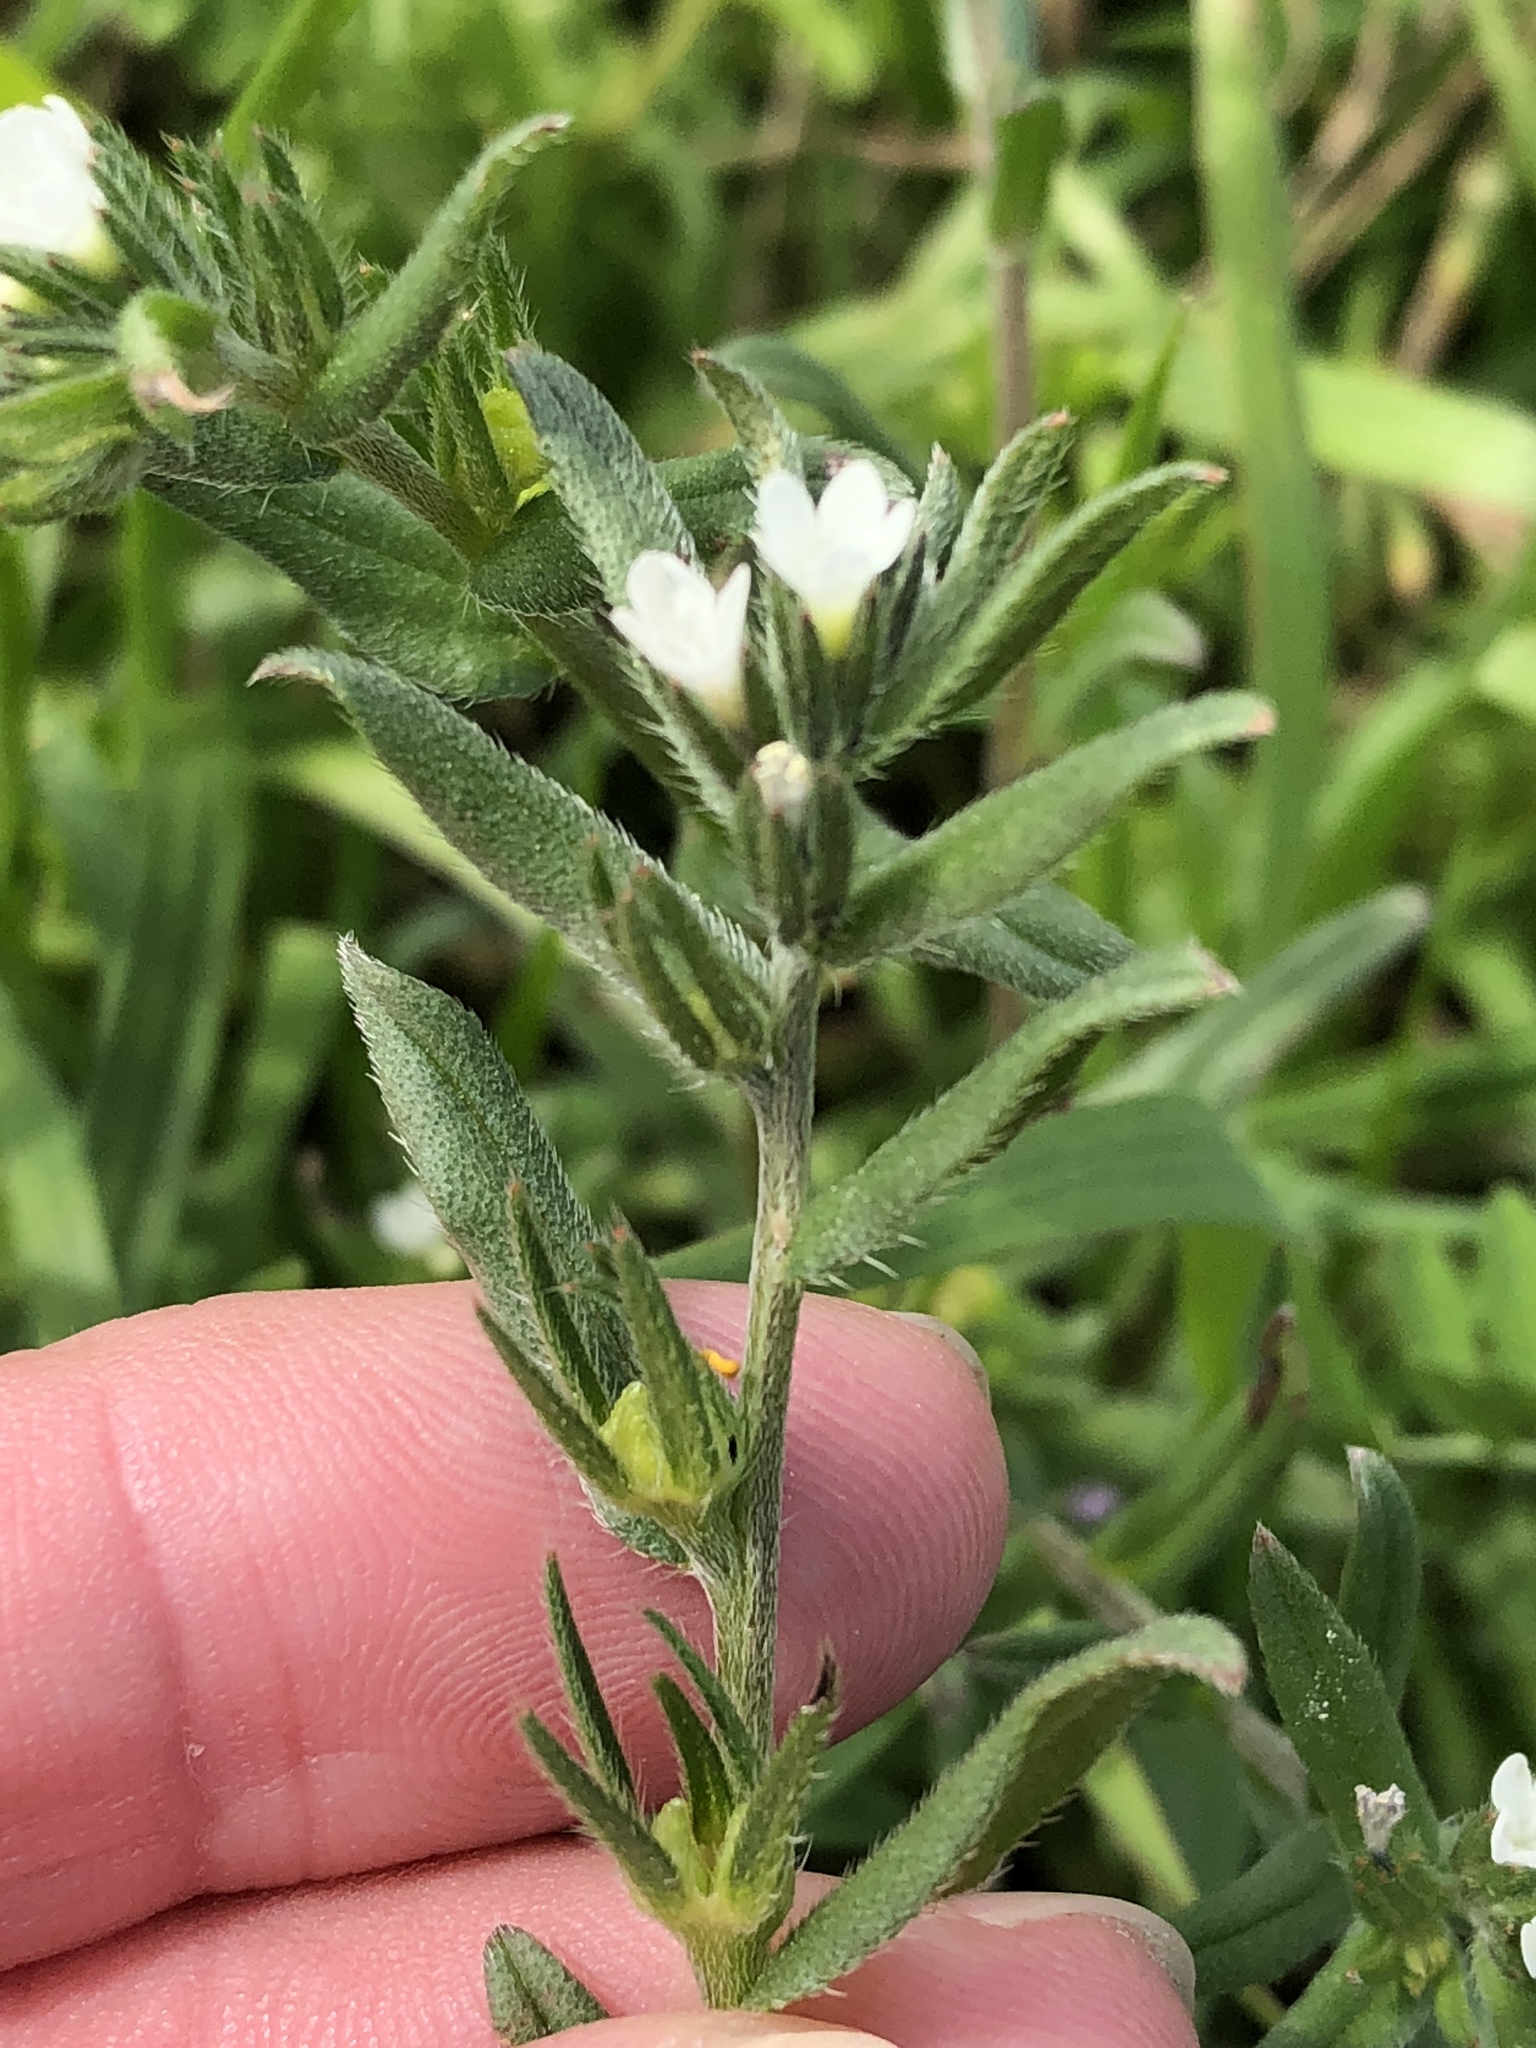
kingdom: Plantae
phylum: Tracheophyta
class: Magnoliopsida
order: Boraginales
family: Boraginaceae
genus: Buglossoides
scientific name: Buglossoides arvensis
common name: Corn gromwell
